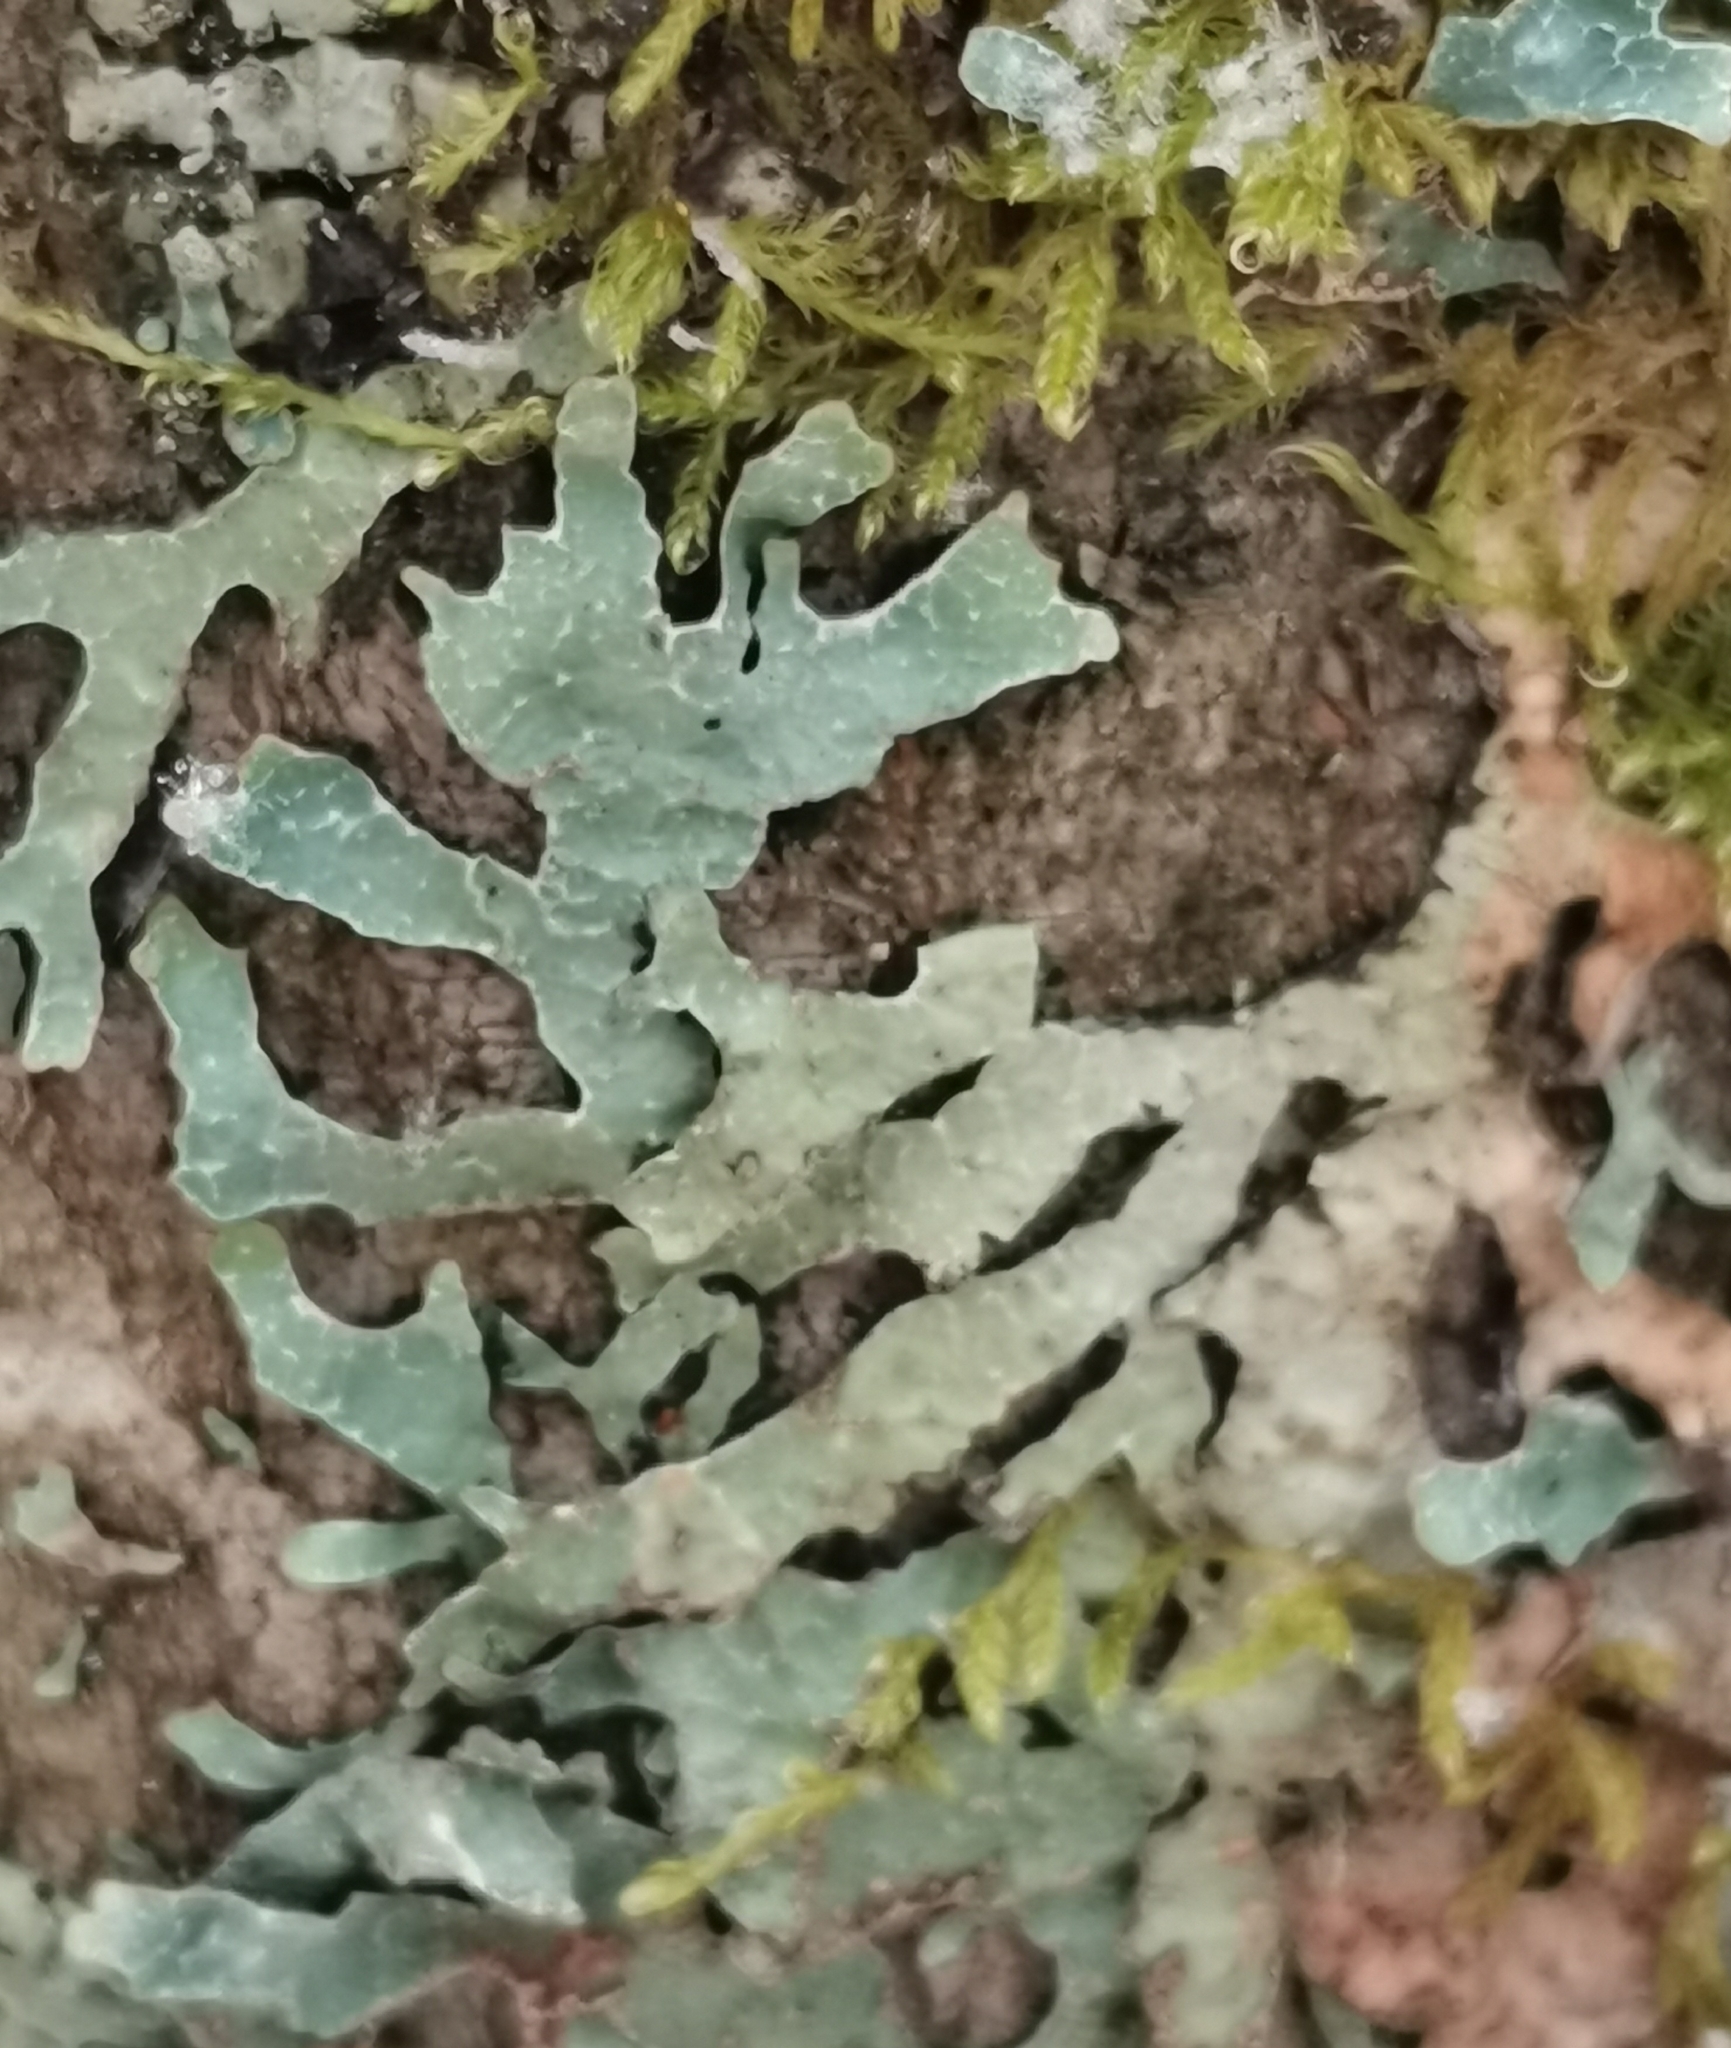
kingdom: Fungi
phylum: Ascomycota
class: Lecanoromycetes
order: Lecanorales
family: Parmeliaceae
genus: Parmelia
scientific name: Parmelia sulcata
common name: Netted shield lichen
